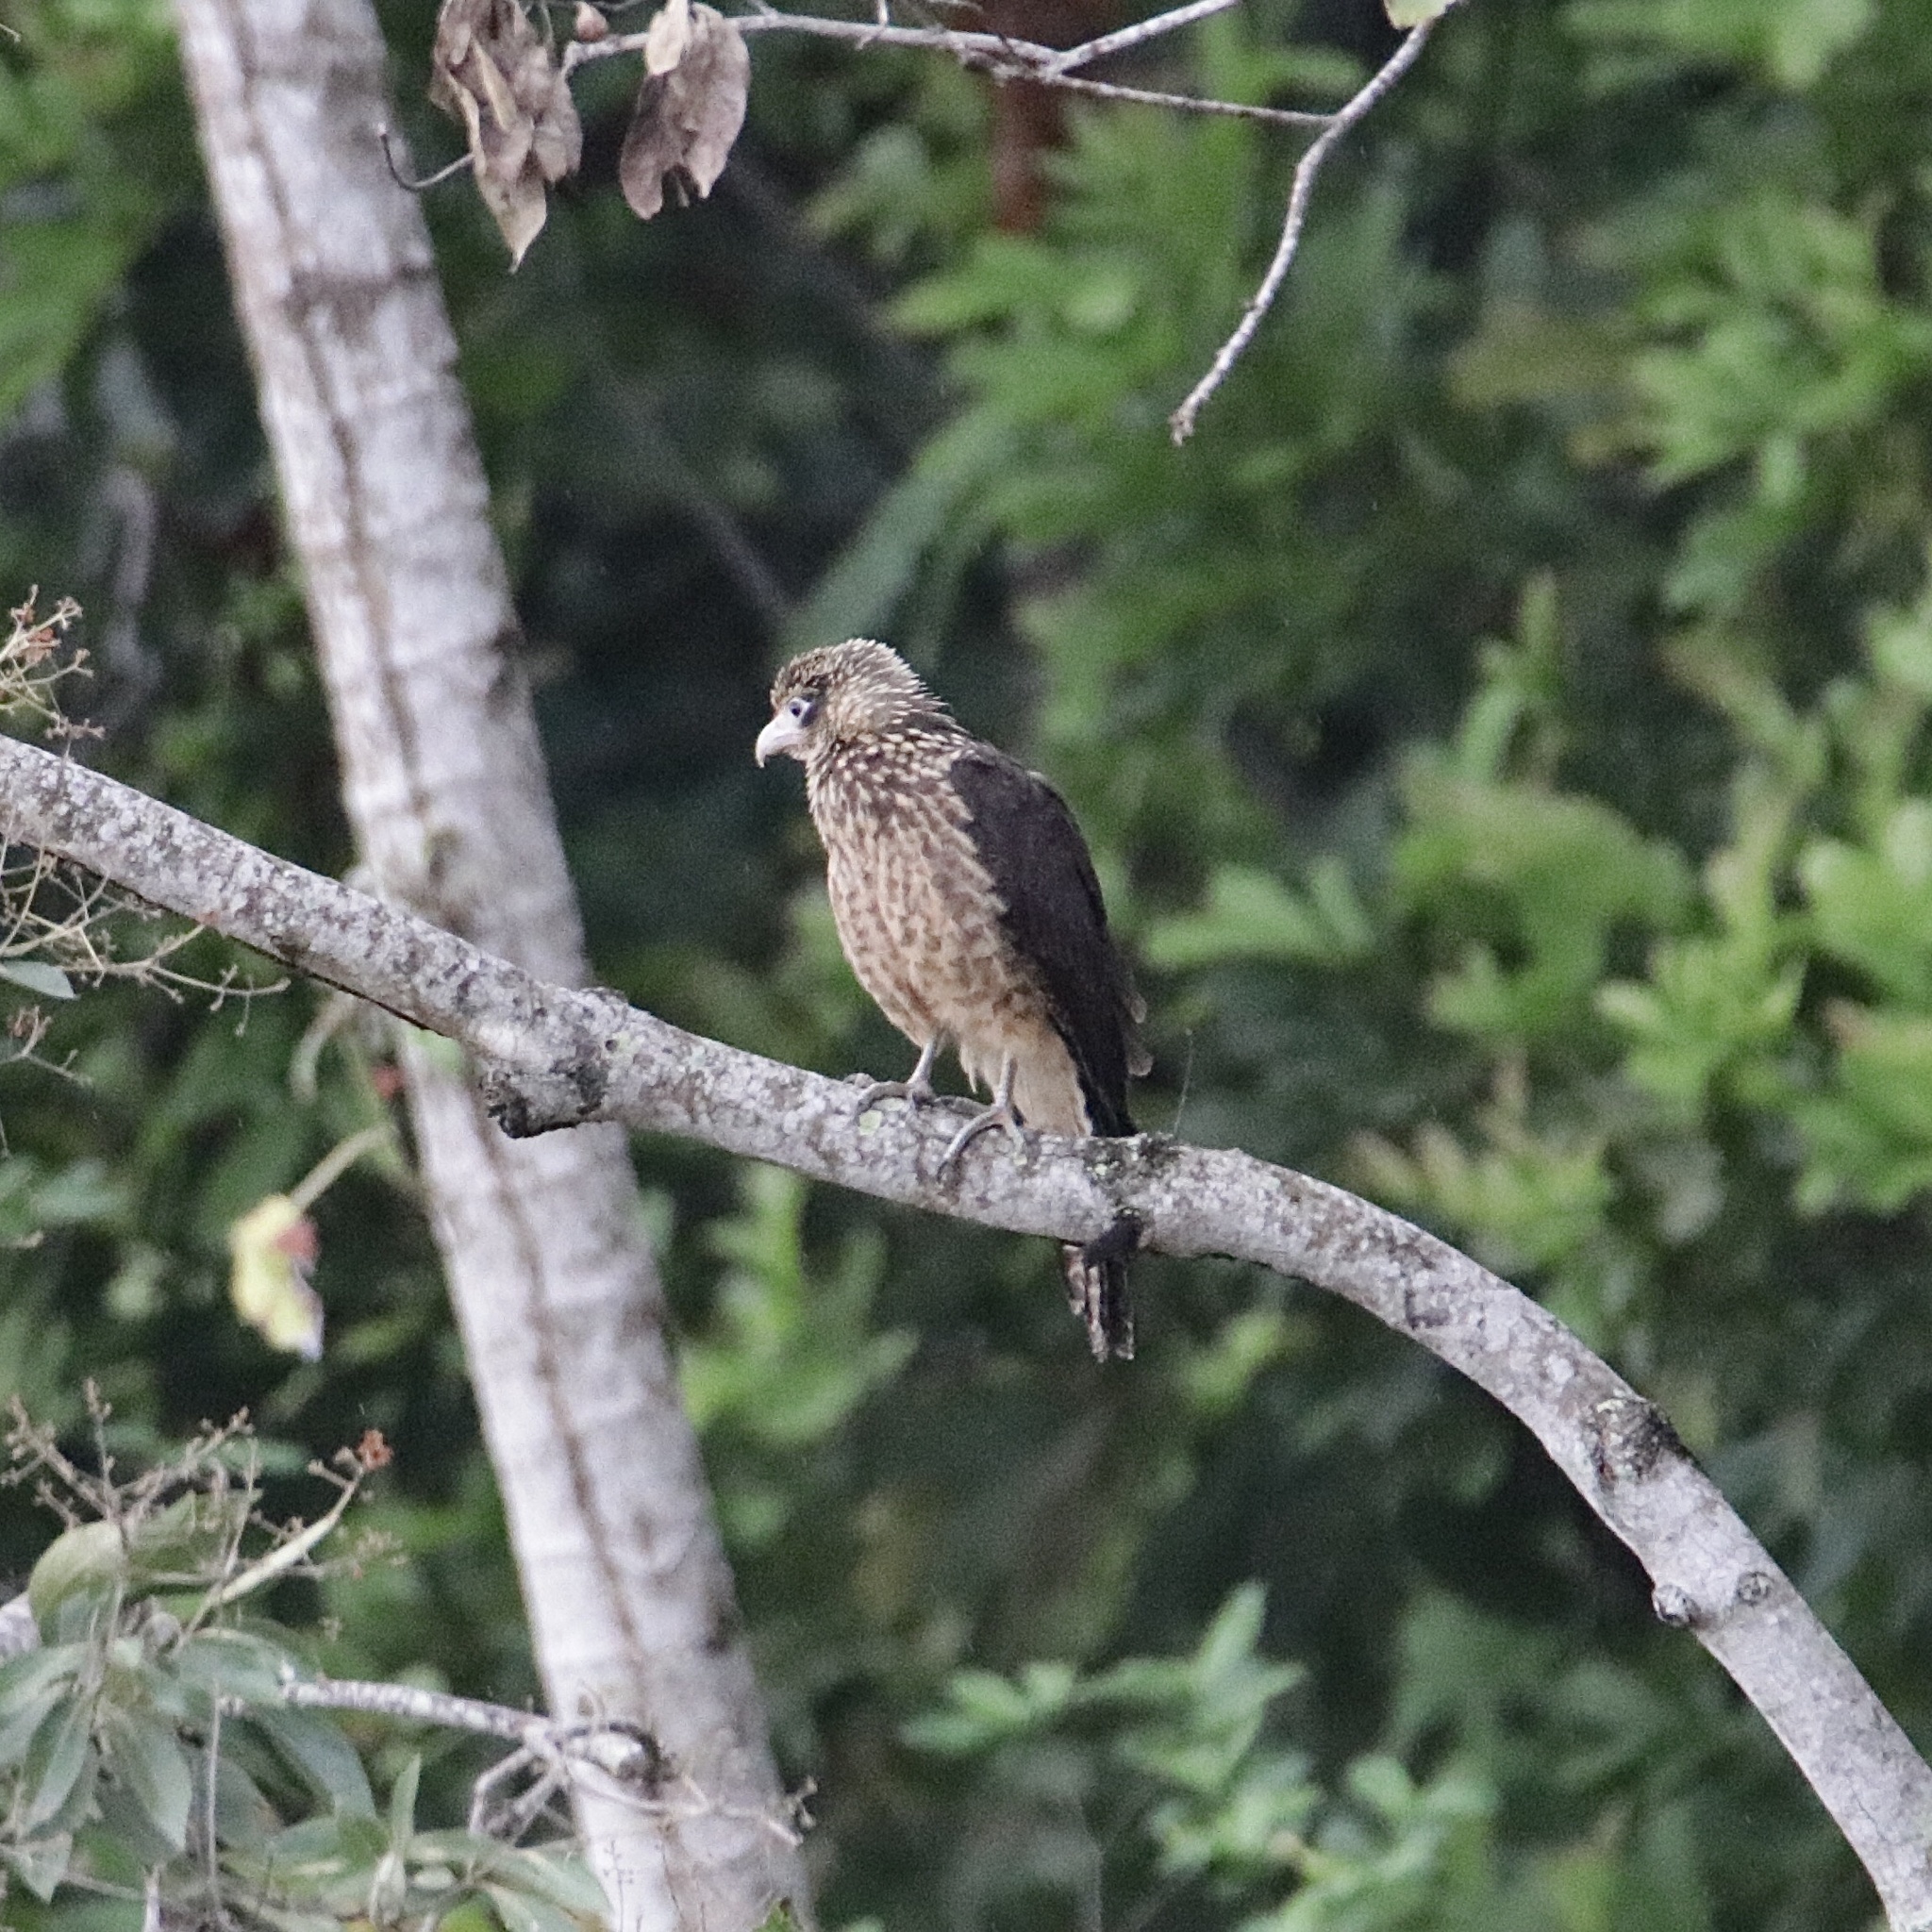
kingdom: Animalia
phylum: Chordata
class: Aves
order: Falconiformes
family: Falconidae
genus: Daptrius
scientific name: Daptrius
